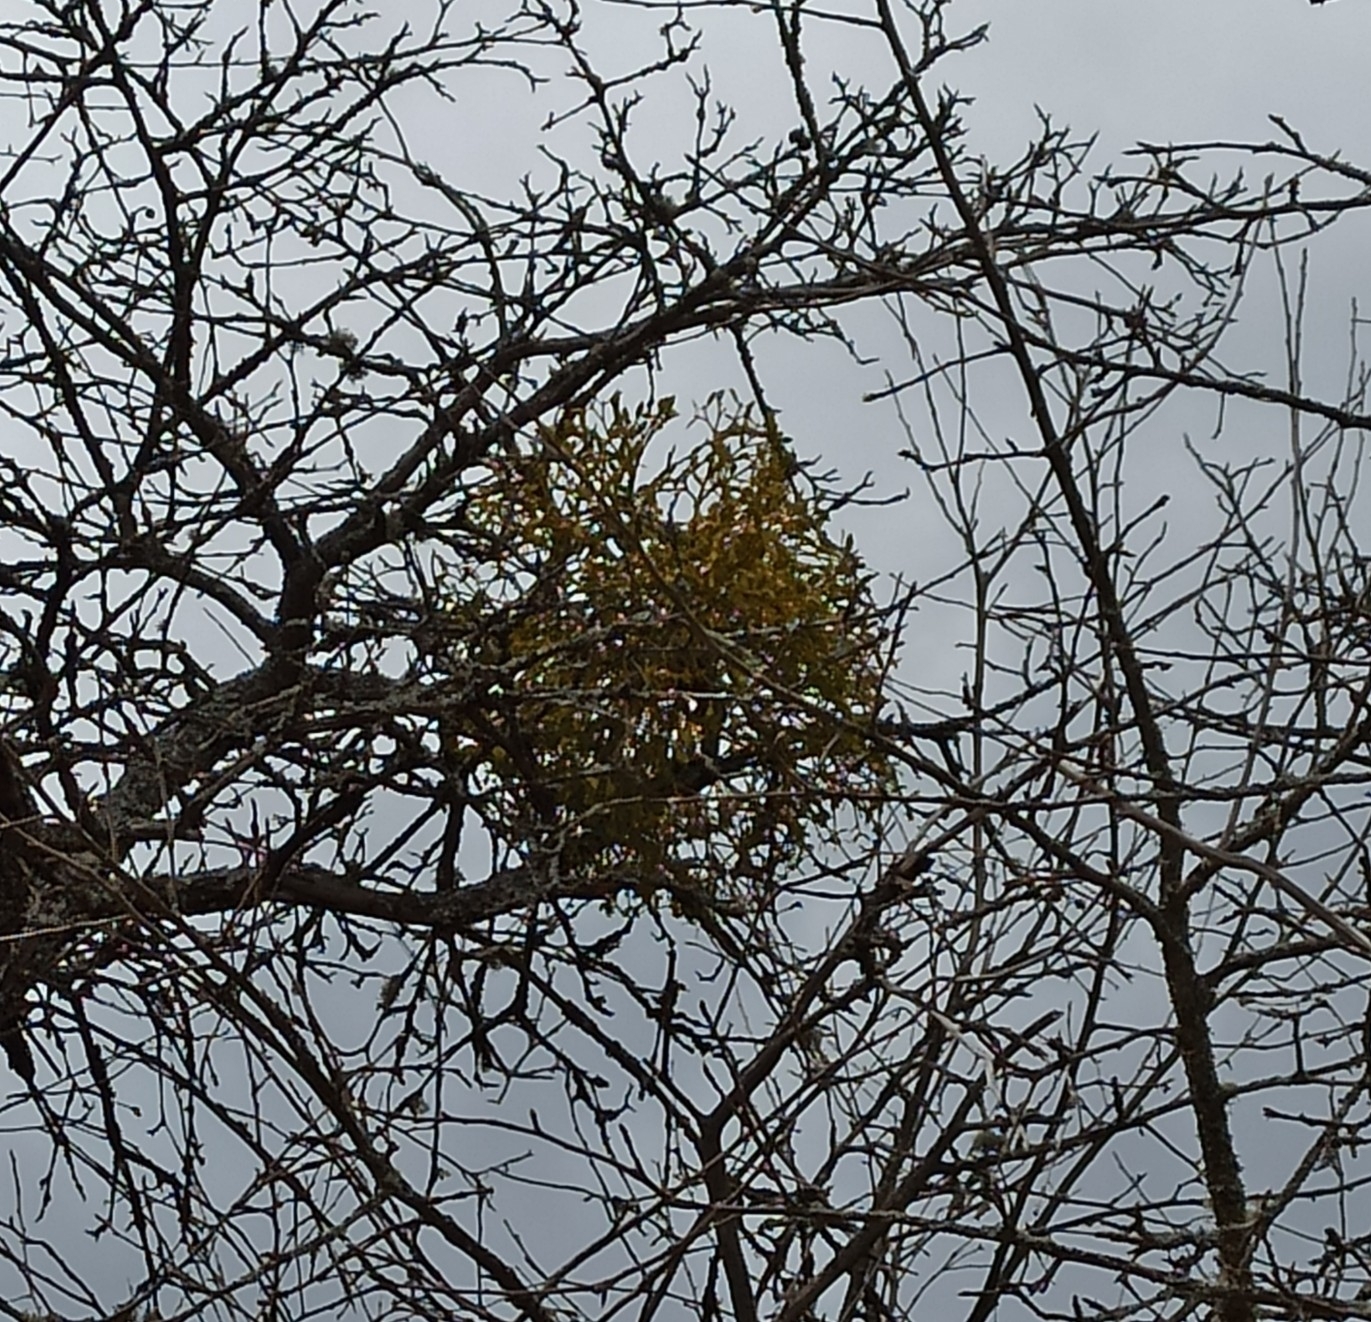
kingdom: Plantae
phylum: Tracheophyta
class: Magnoliopsida
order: Santalales
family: Viscaceae
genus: Viscum
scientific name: Viscum album
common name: Mistletoe
